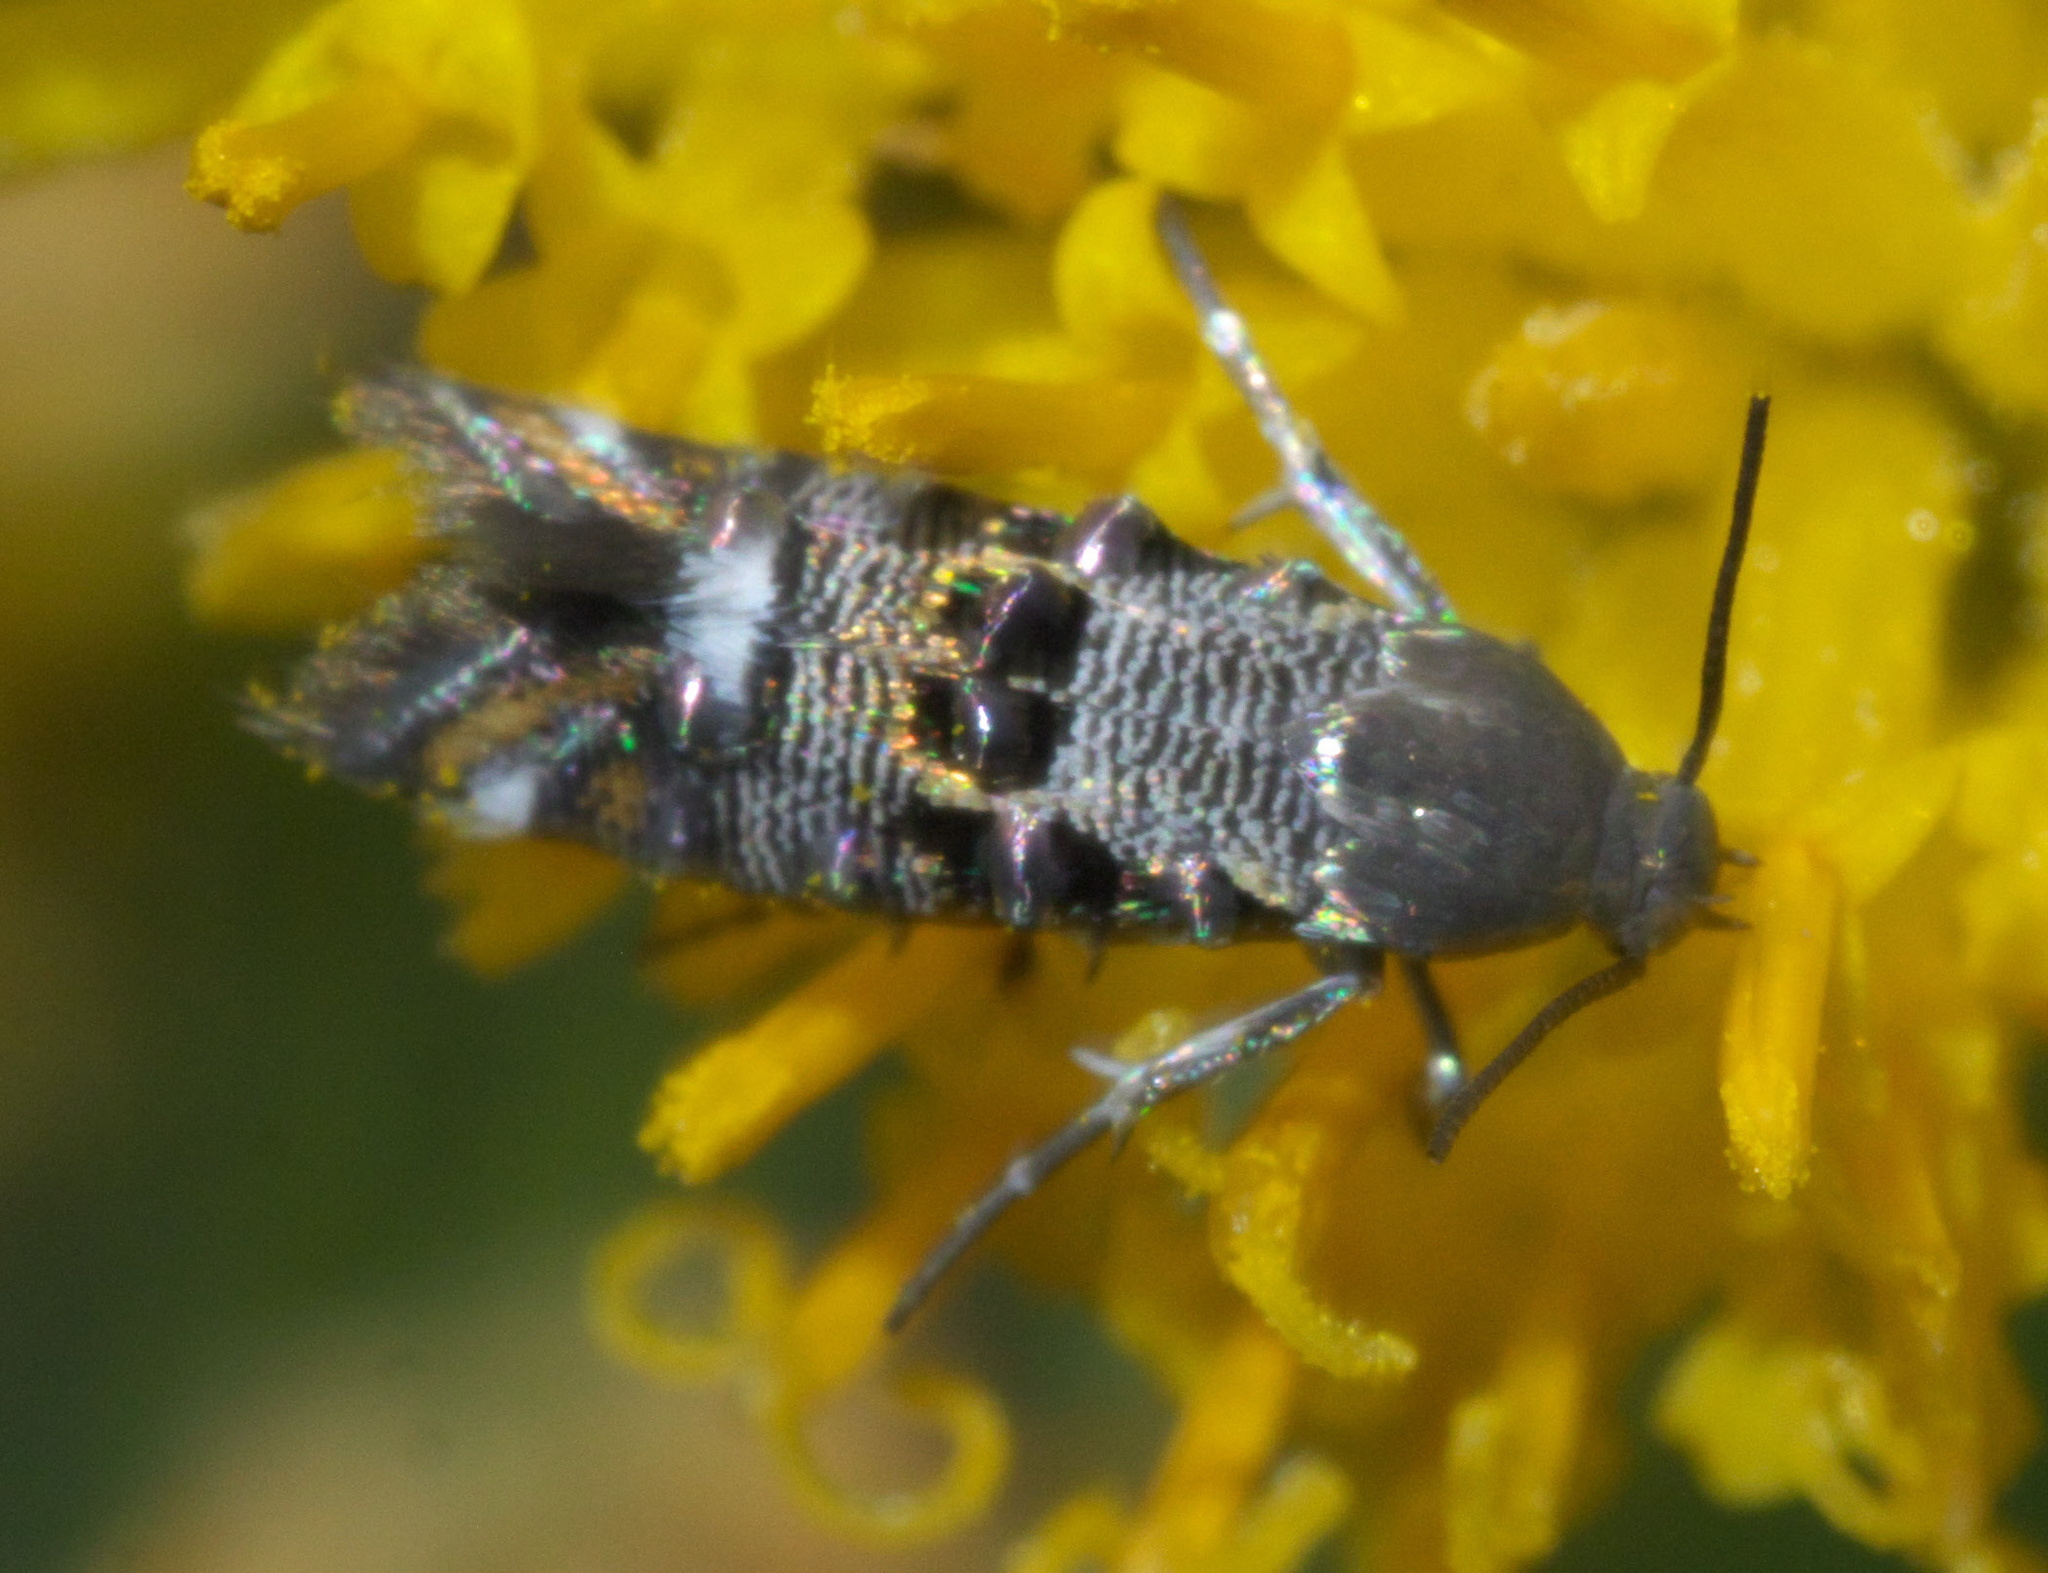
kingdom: Animalia
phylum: Arthropoda
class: Insecta
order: Lepidoptera
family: Heliodinidae
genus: Lithariapteryx
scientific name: Lithariapteryx abroniaeella
